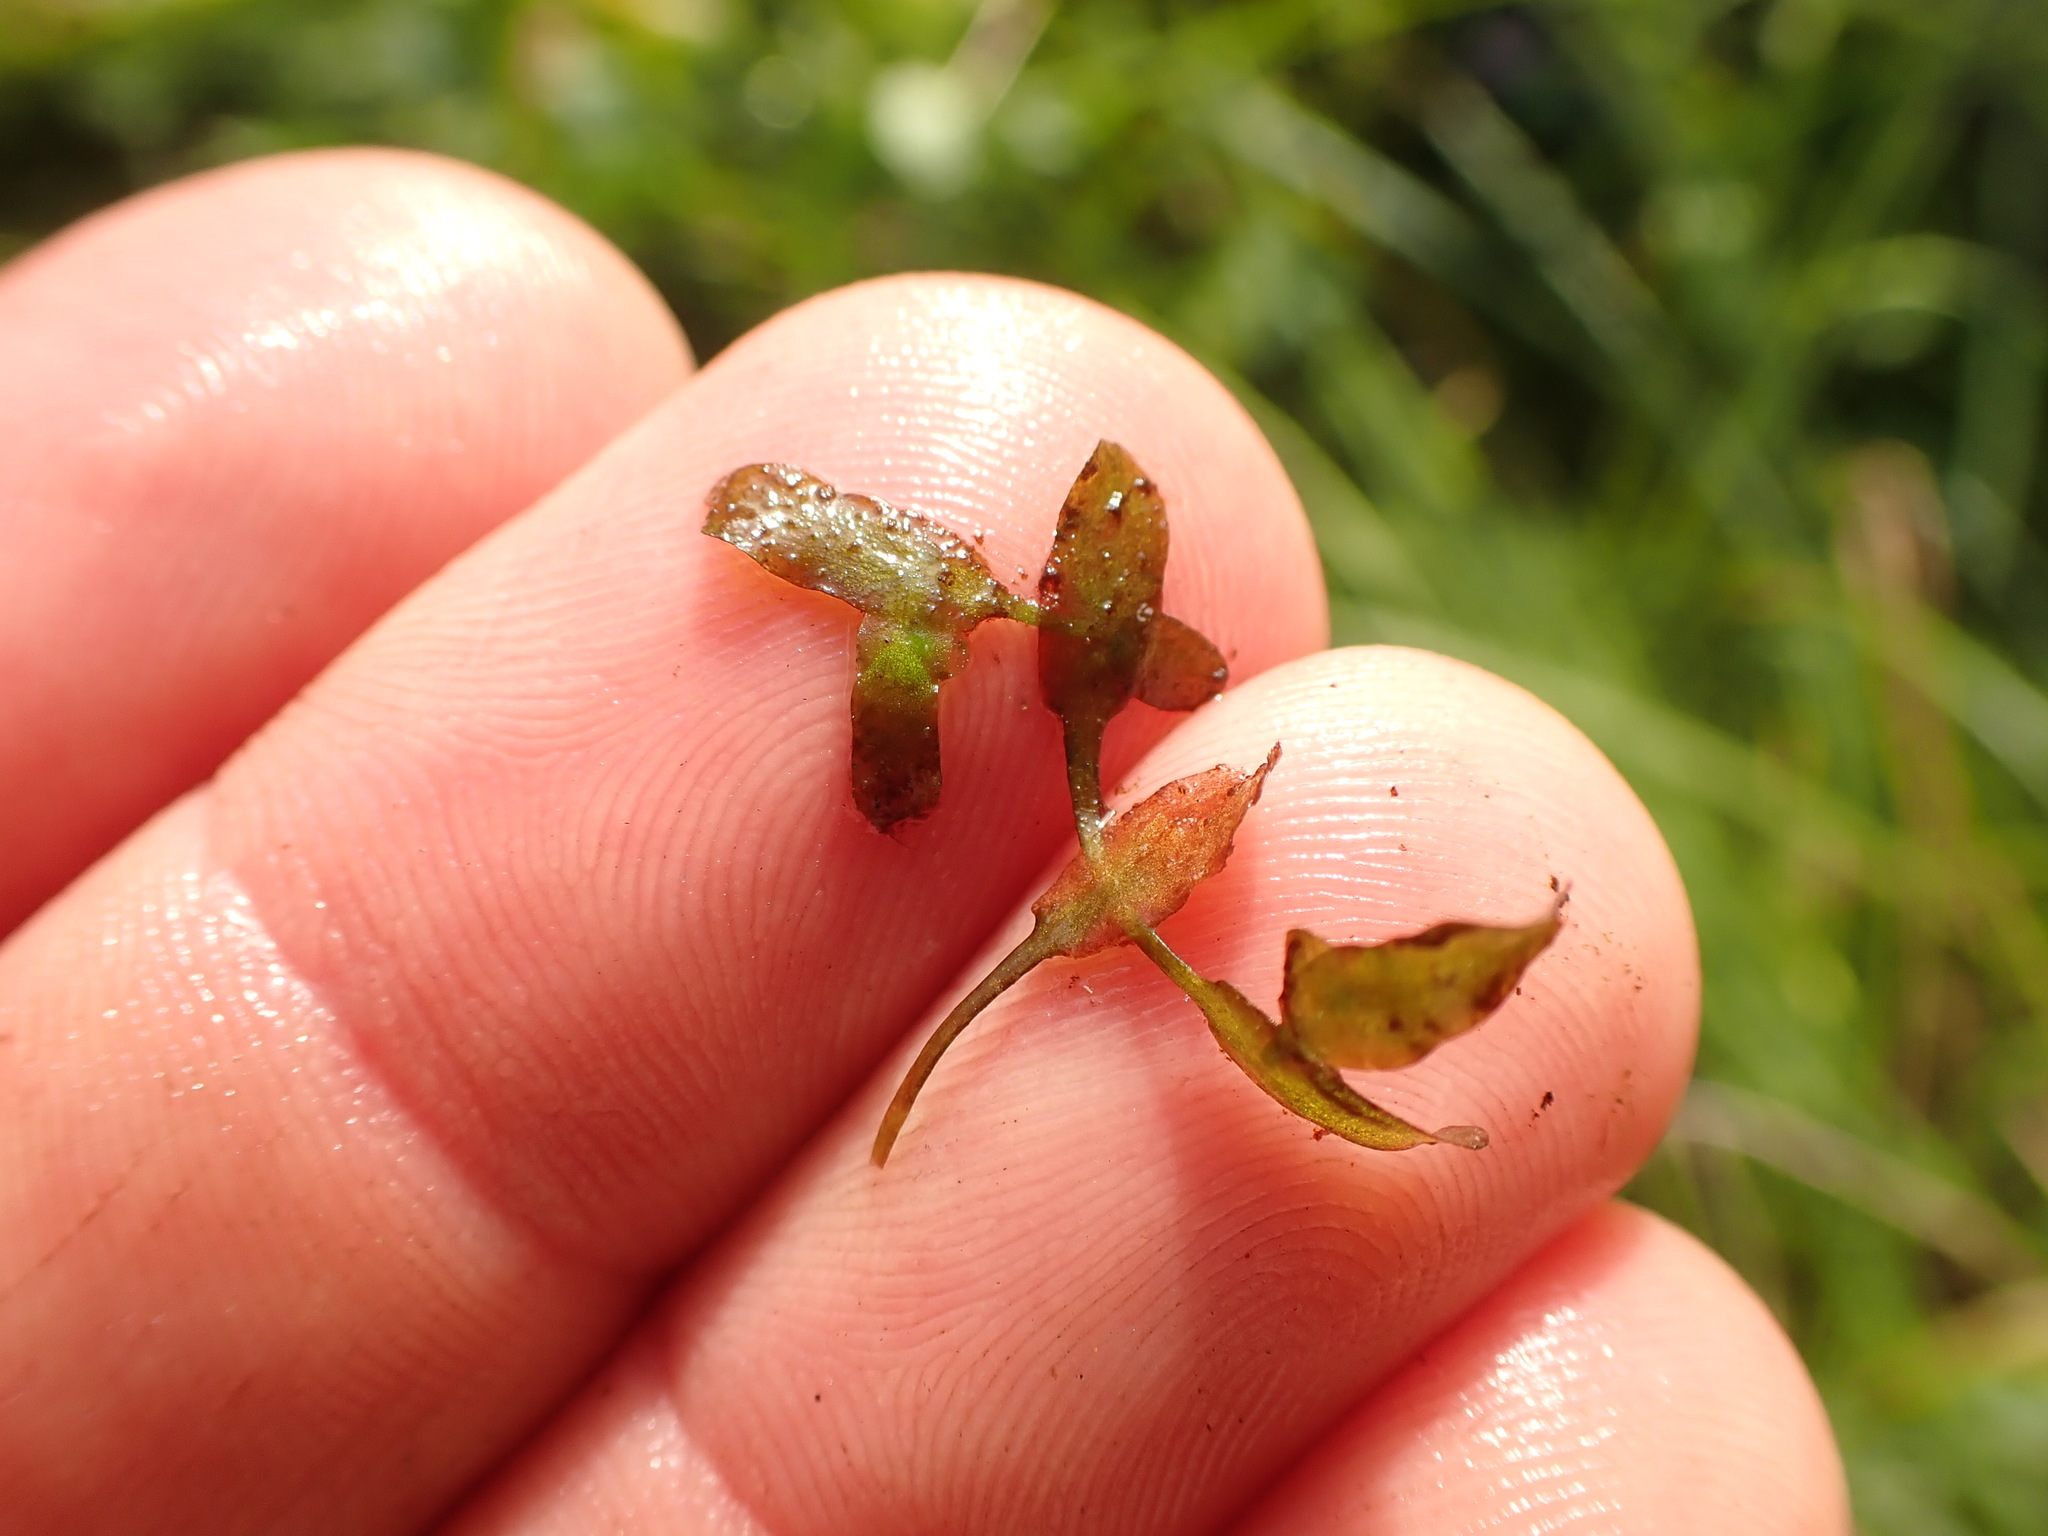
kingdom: Plantae
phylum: Tracheophyta
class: Liliopsida
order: Alismatales
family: Araceae
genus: Lemna
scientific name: Lemna trisulca
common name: Ivy-leaved duckweed
